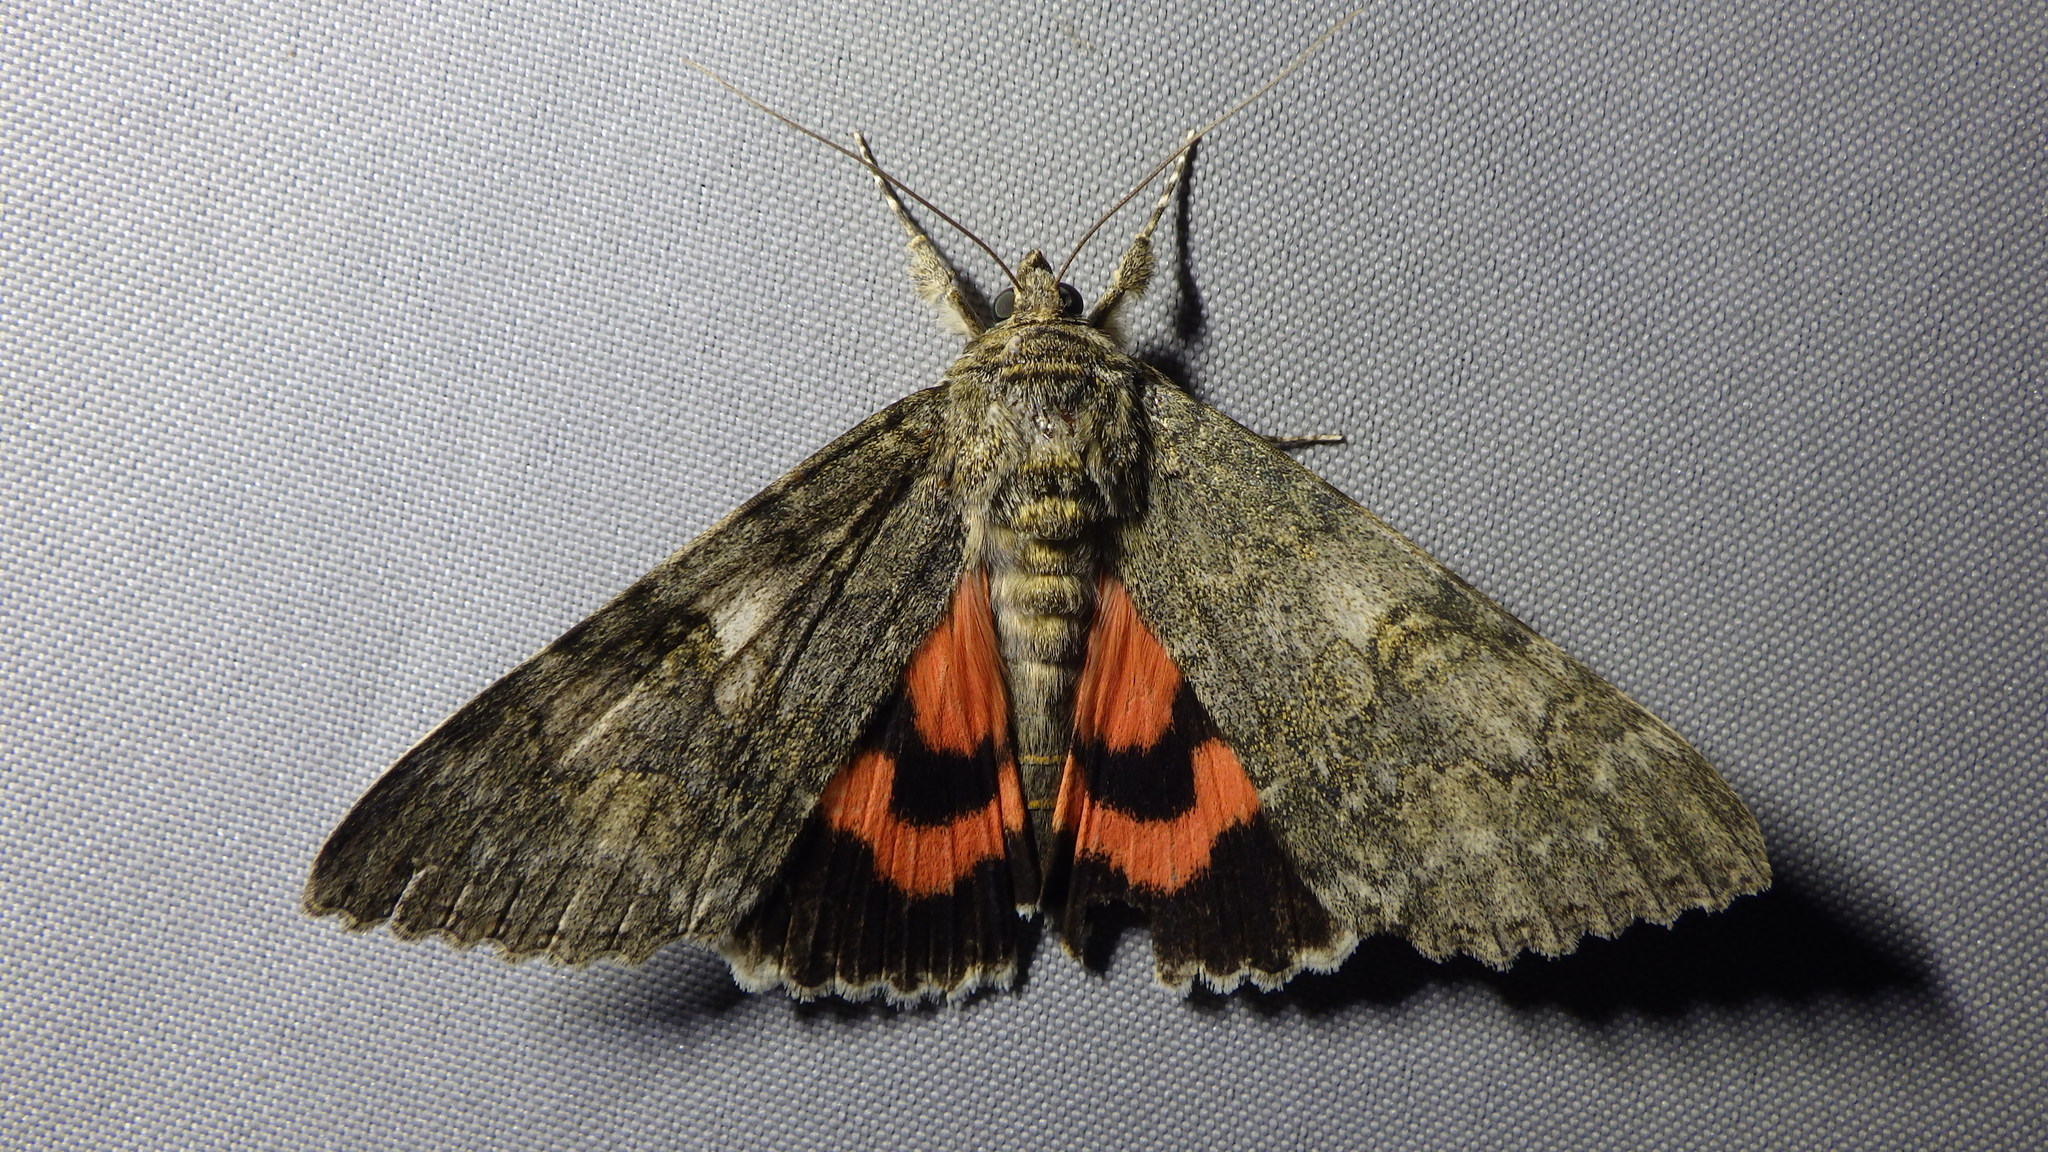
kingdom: Animalia
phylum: Arthropoda
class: Insecta
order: Lepidoptera
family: Erebidae
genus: Catocala
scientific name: Catocala nupta
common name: Red underwing
